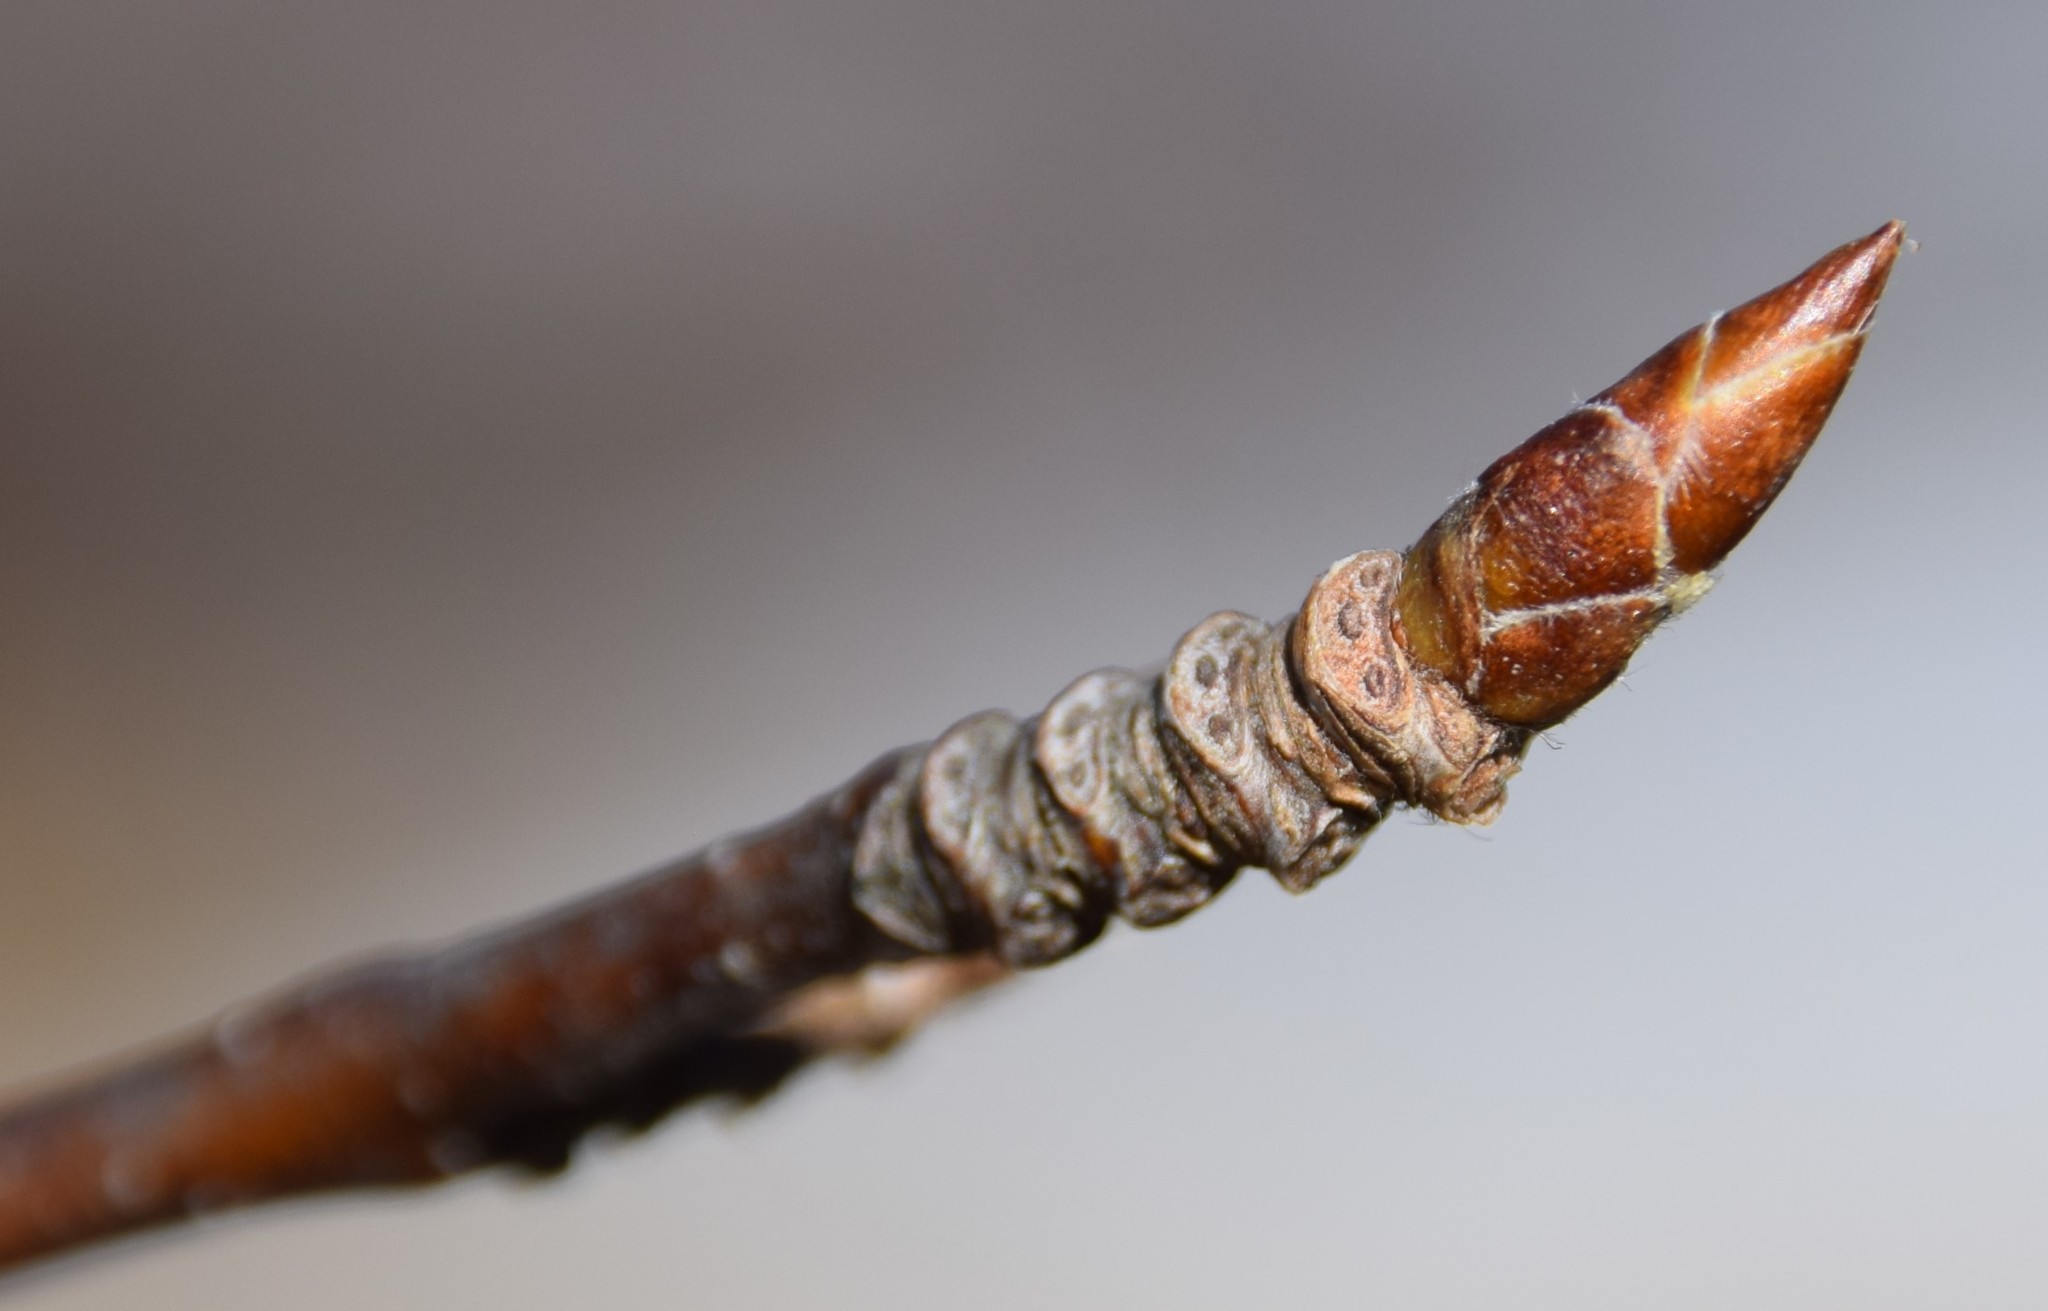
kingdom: Plantae
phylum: Tracheophyta
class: Magnoliopsida
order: Fagales
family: Betulaceae
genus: Betula
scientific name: Betula alleghaniensis
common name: Yellow birch
